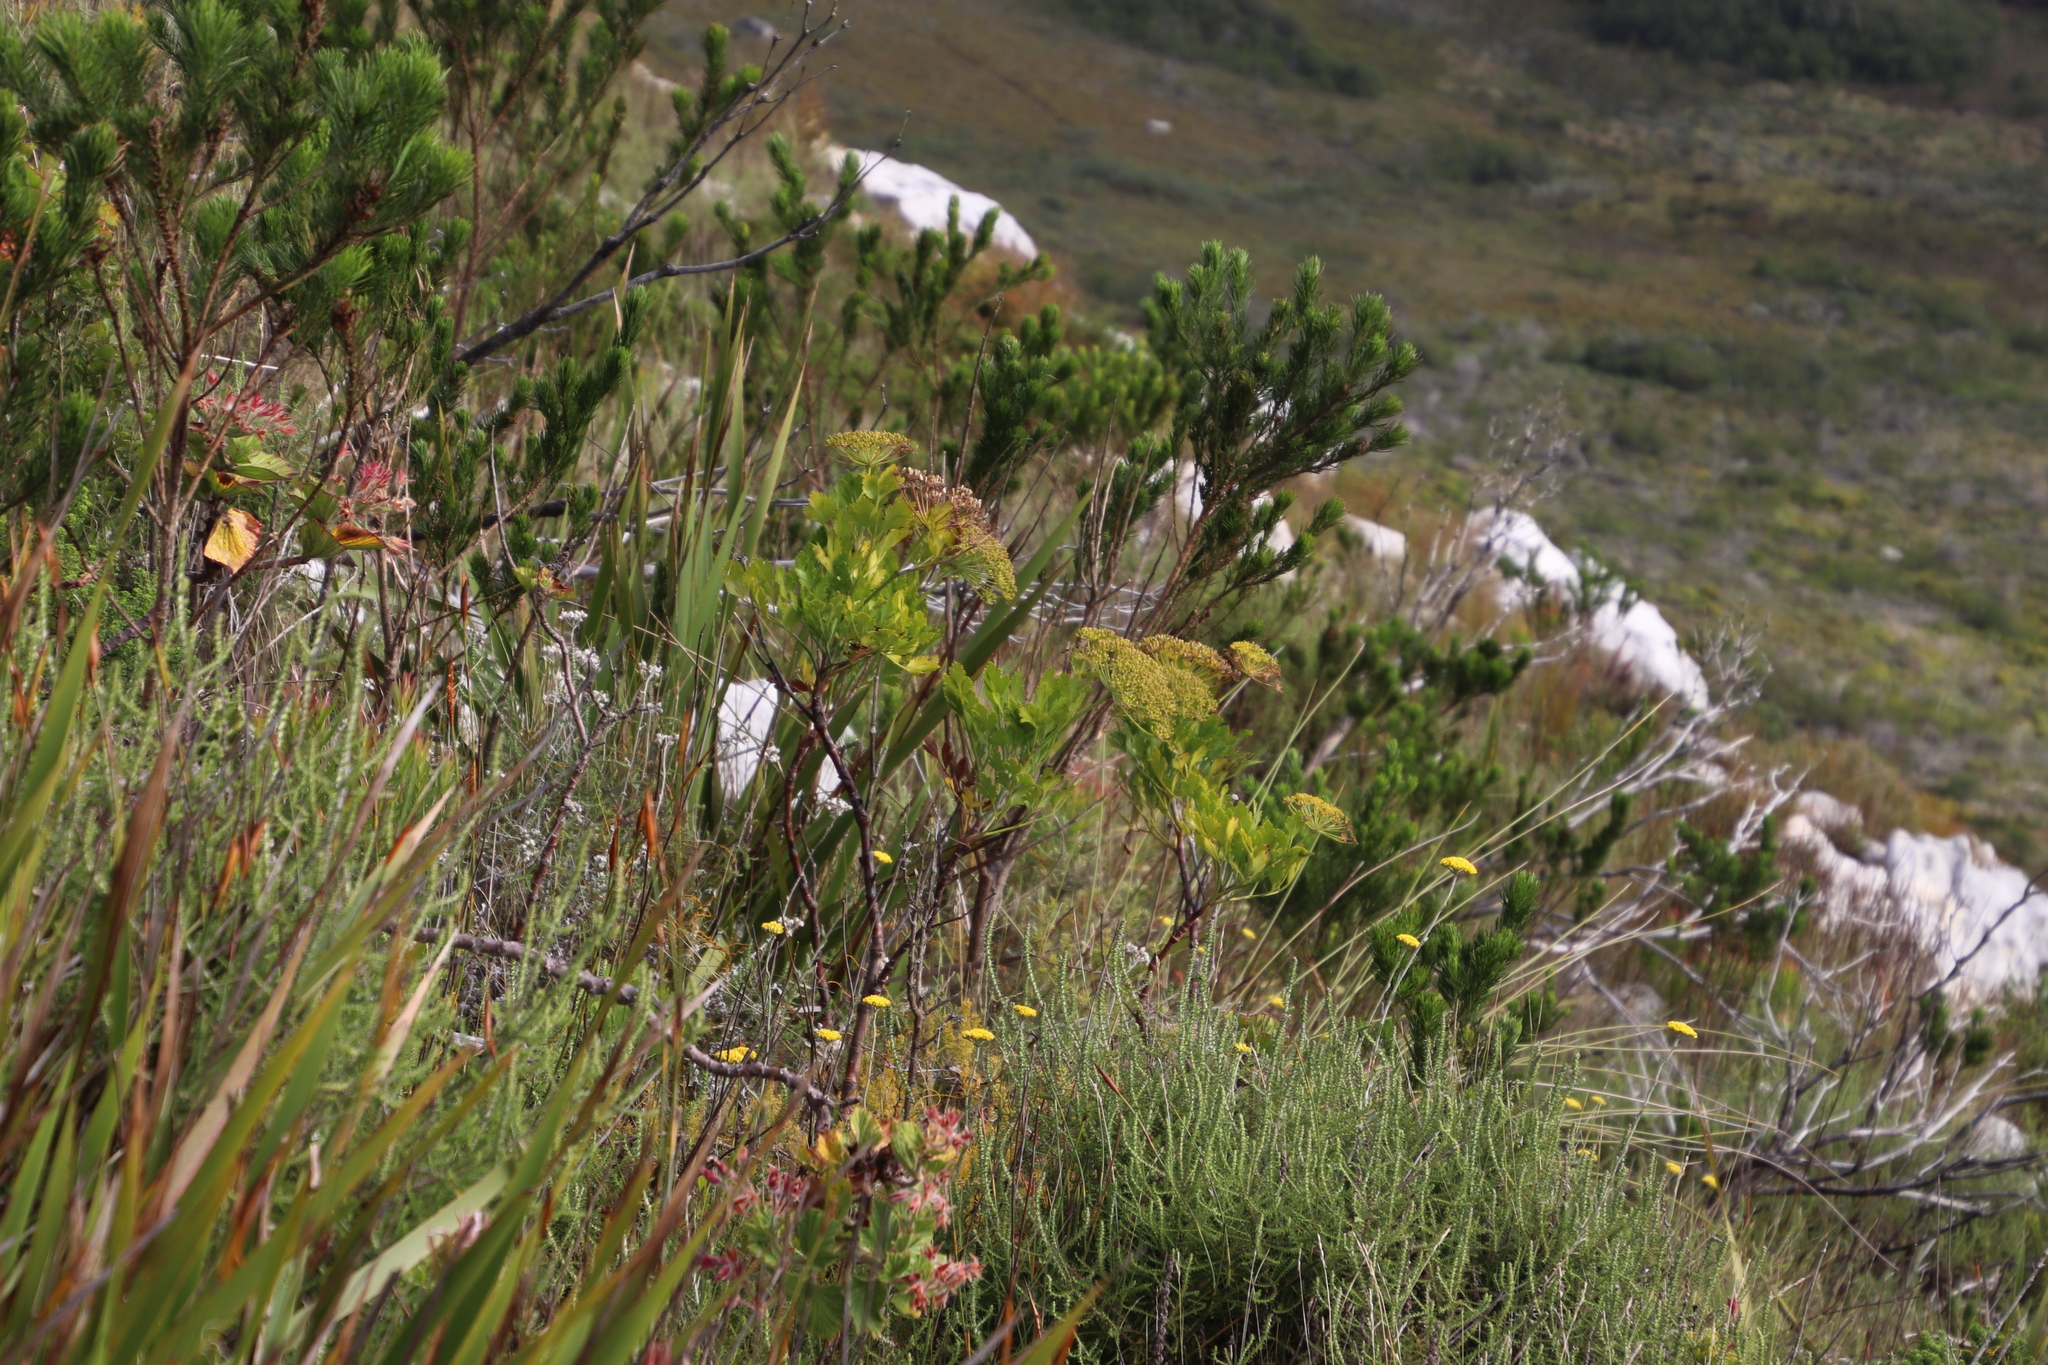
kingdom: Plantae
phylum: Tracheophyta
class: Magnoliopsida
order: Apiales
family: Apiaceae
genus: Notobubon
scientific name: Notobubon galbanum
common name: Blisterbush
